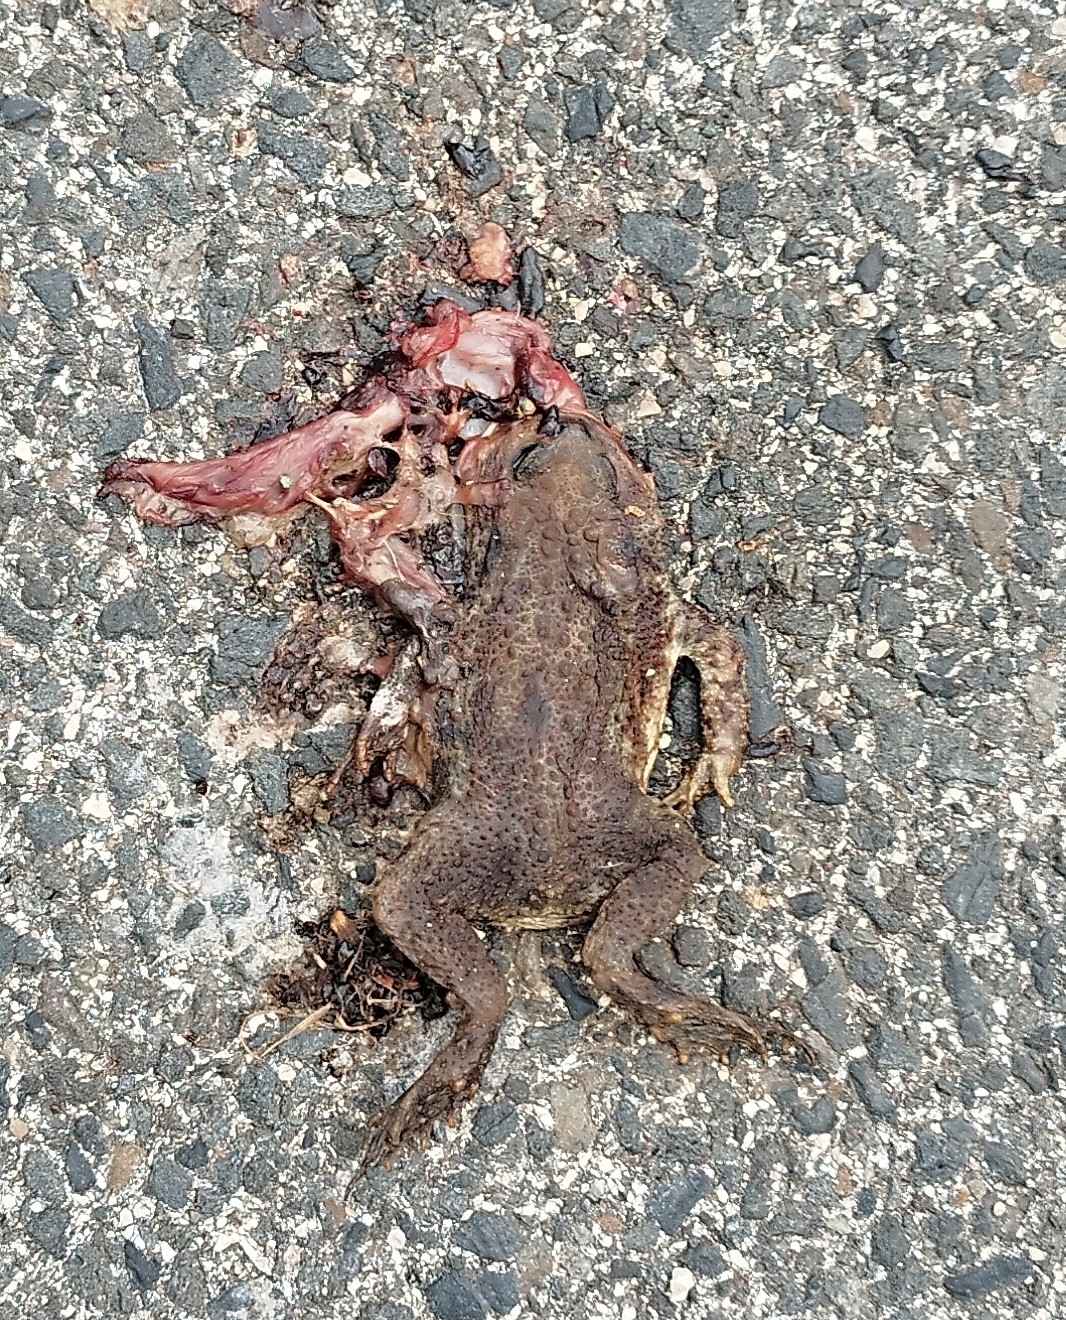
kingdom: Animalia
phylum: Chordata
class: Amphibia
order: Anura
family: Bufonidae
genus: Bufo
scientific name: Bufo bufo
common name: Common toad
